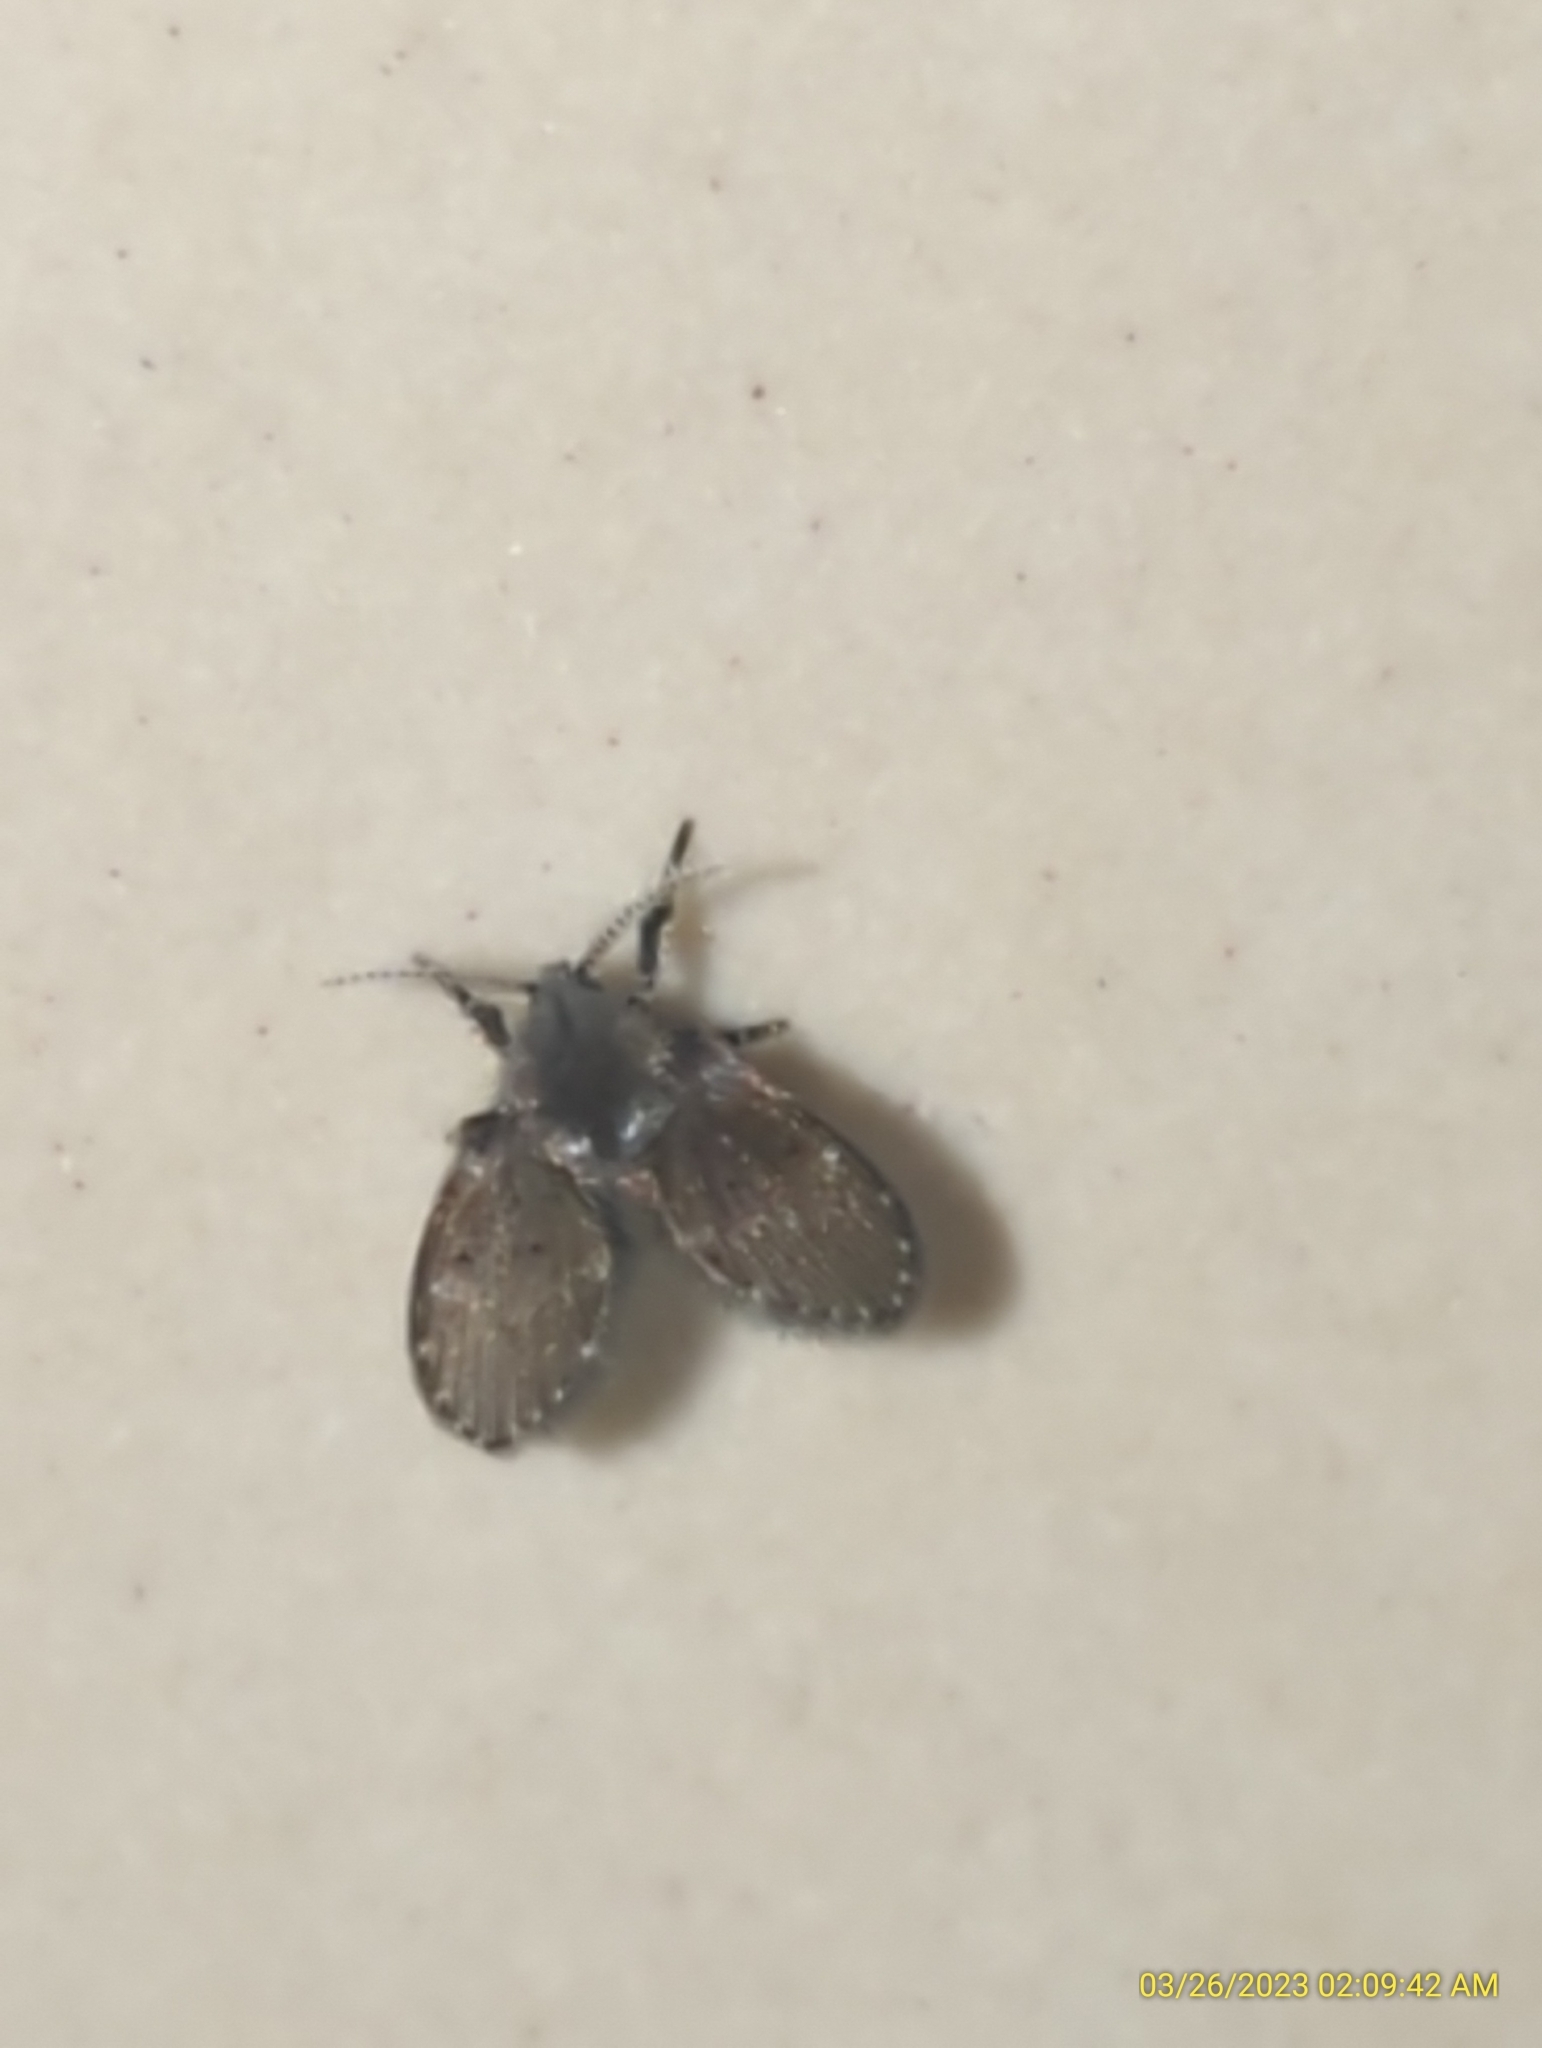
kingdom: Animalia
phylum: Arthropoda
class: Insecta
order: Diptera
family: Psychodidae
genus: Clogmia
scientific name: Clogmia albipunctatus
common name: White-spotted moth fly
